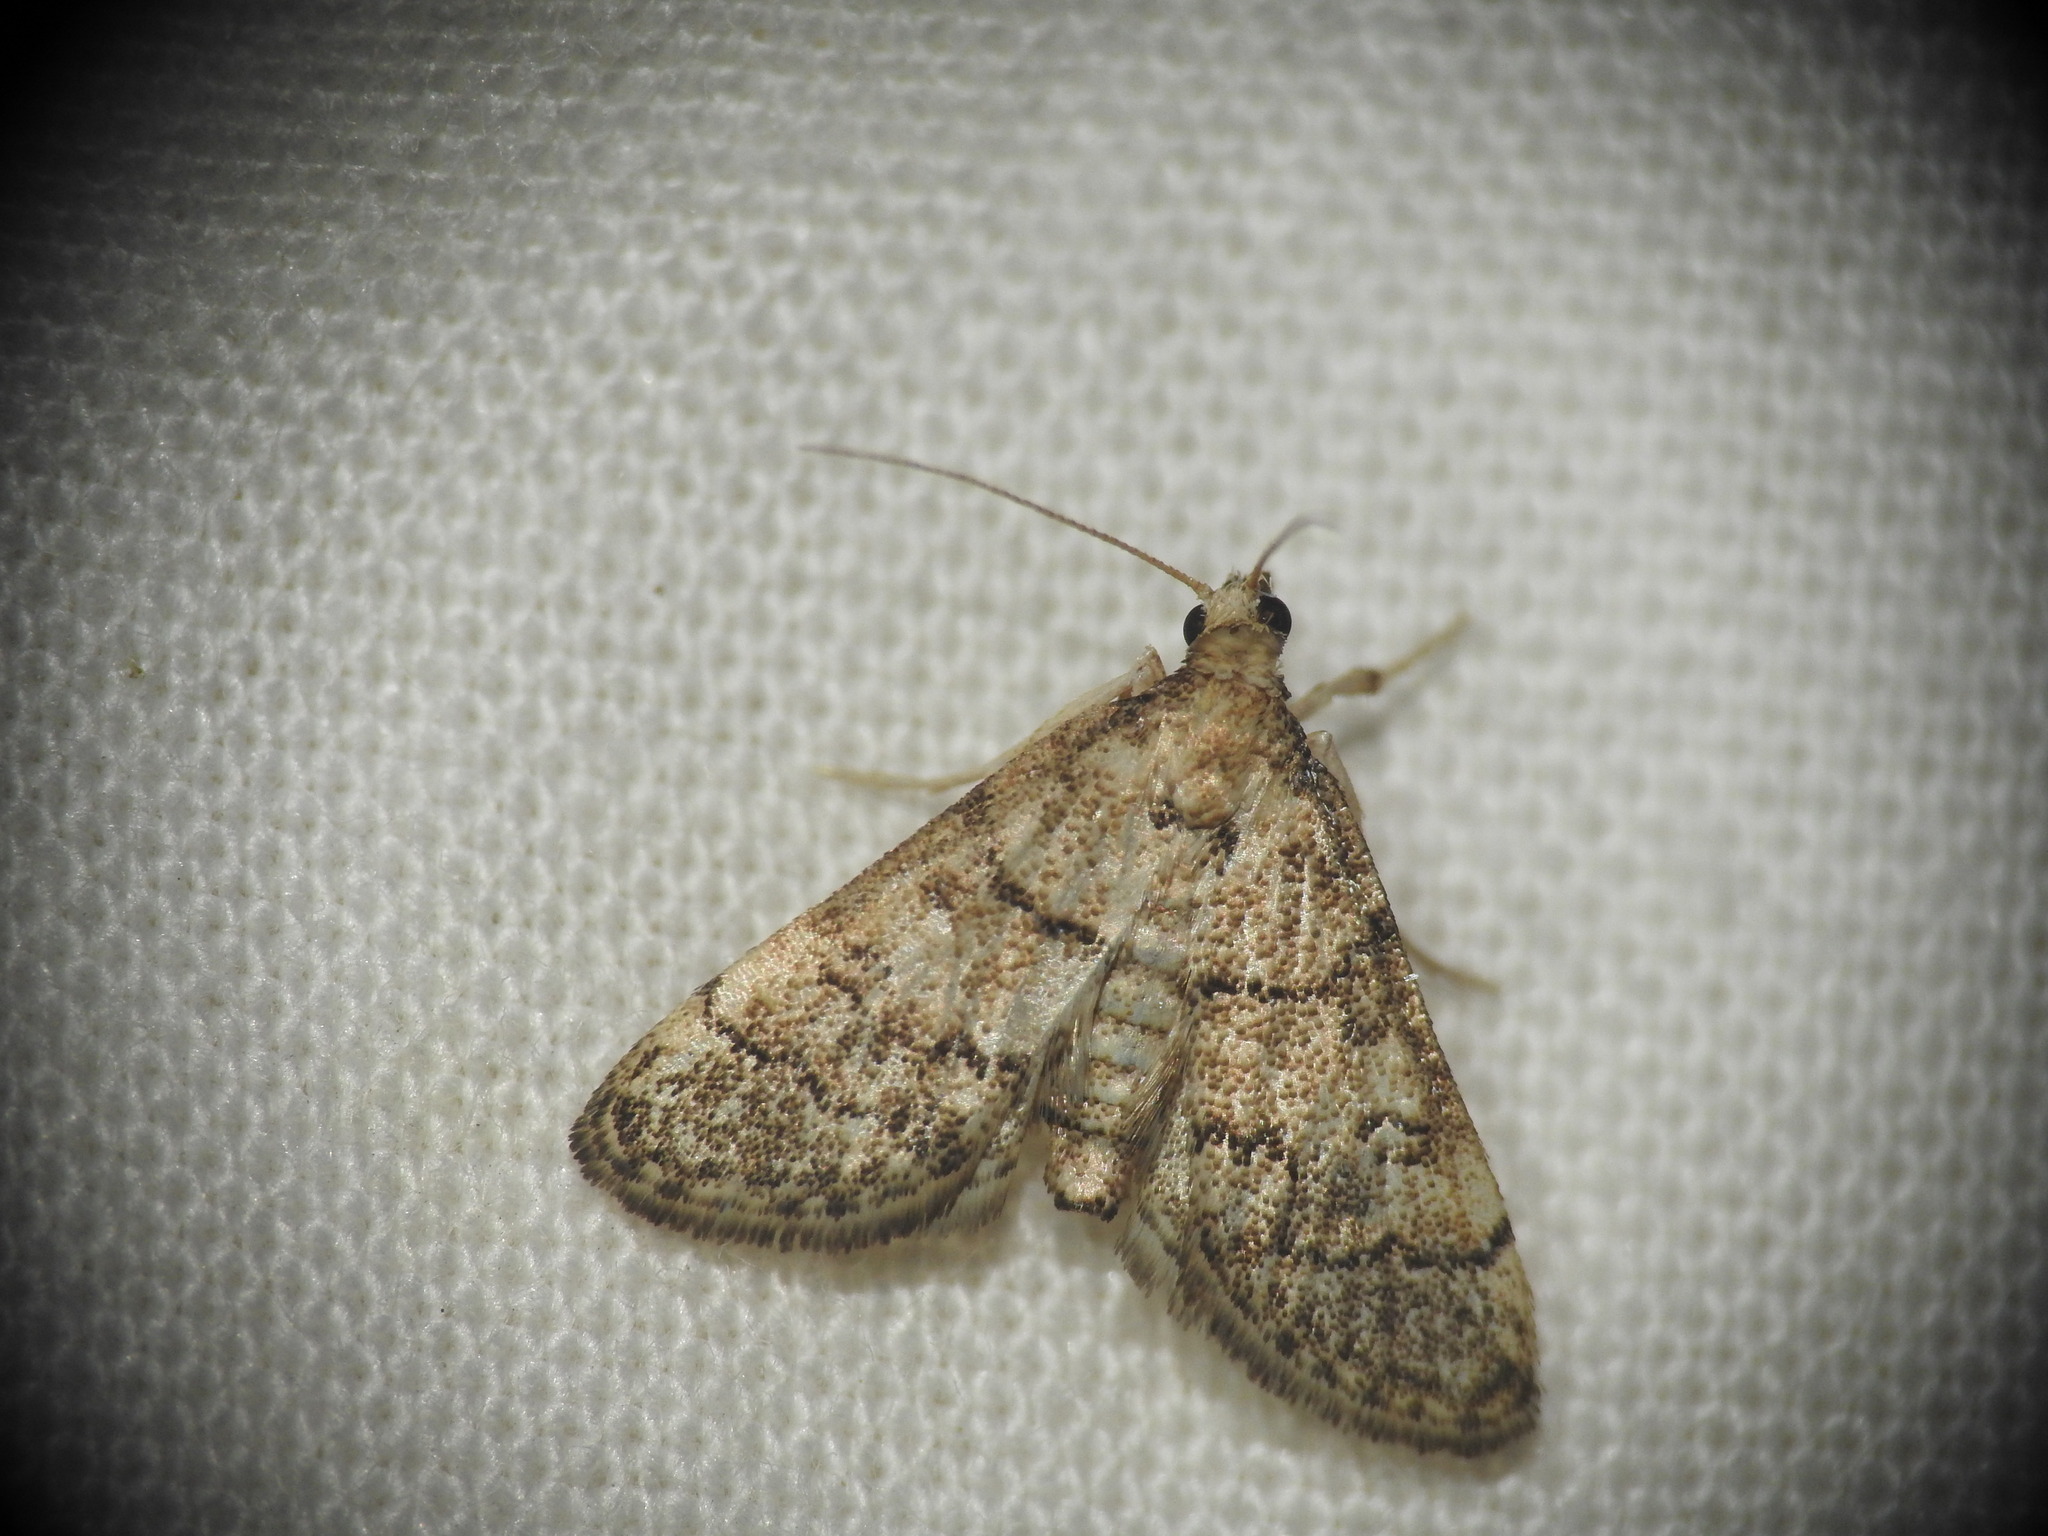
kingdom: Animalia
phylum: Arthropoda
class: Insecta
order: Lepidoptera
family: Crambidae
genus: Metasia
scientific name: Metasia cuencalis
